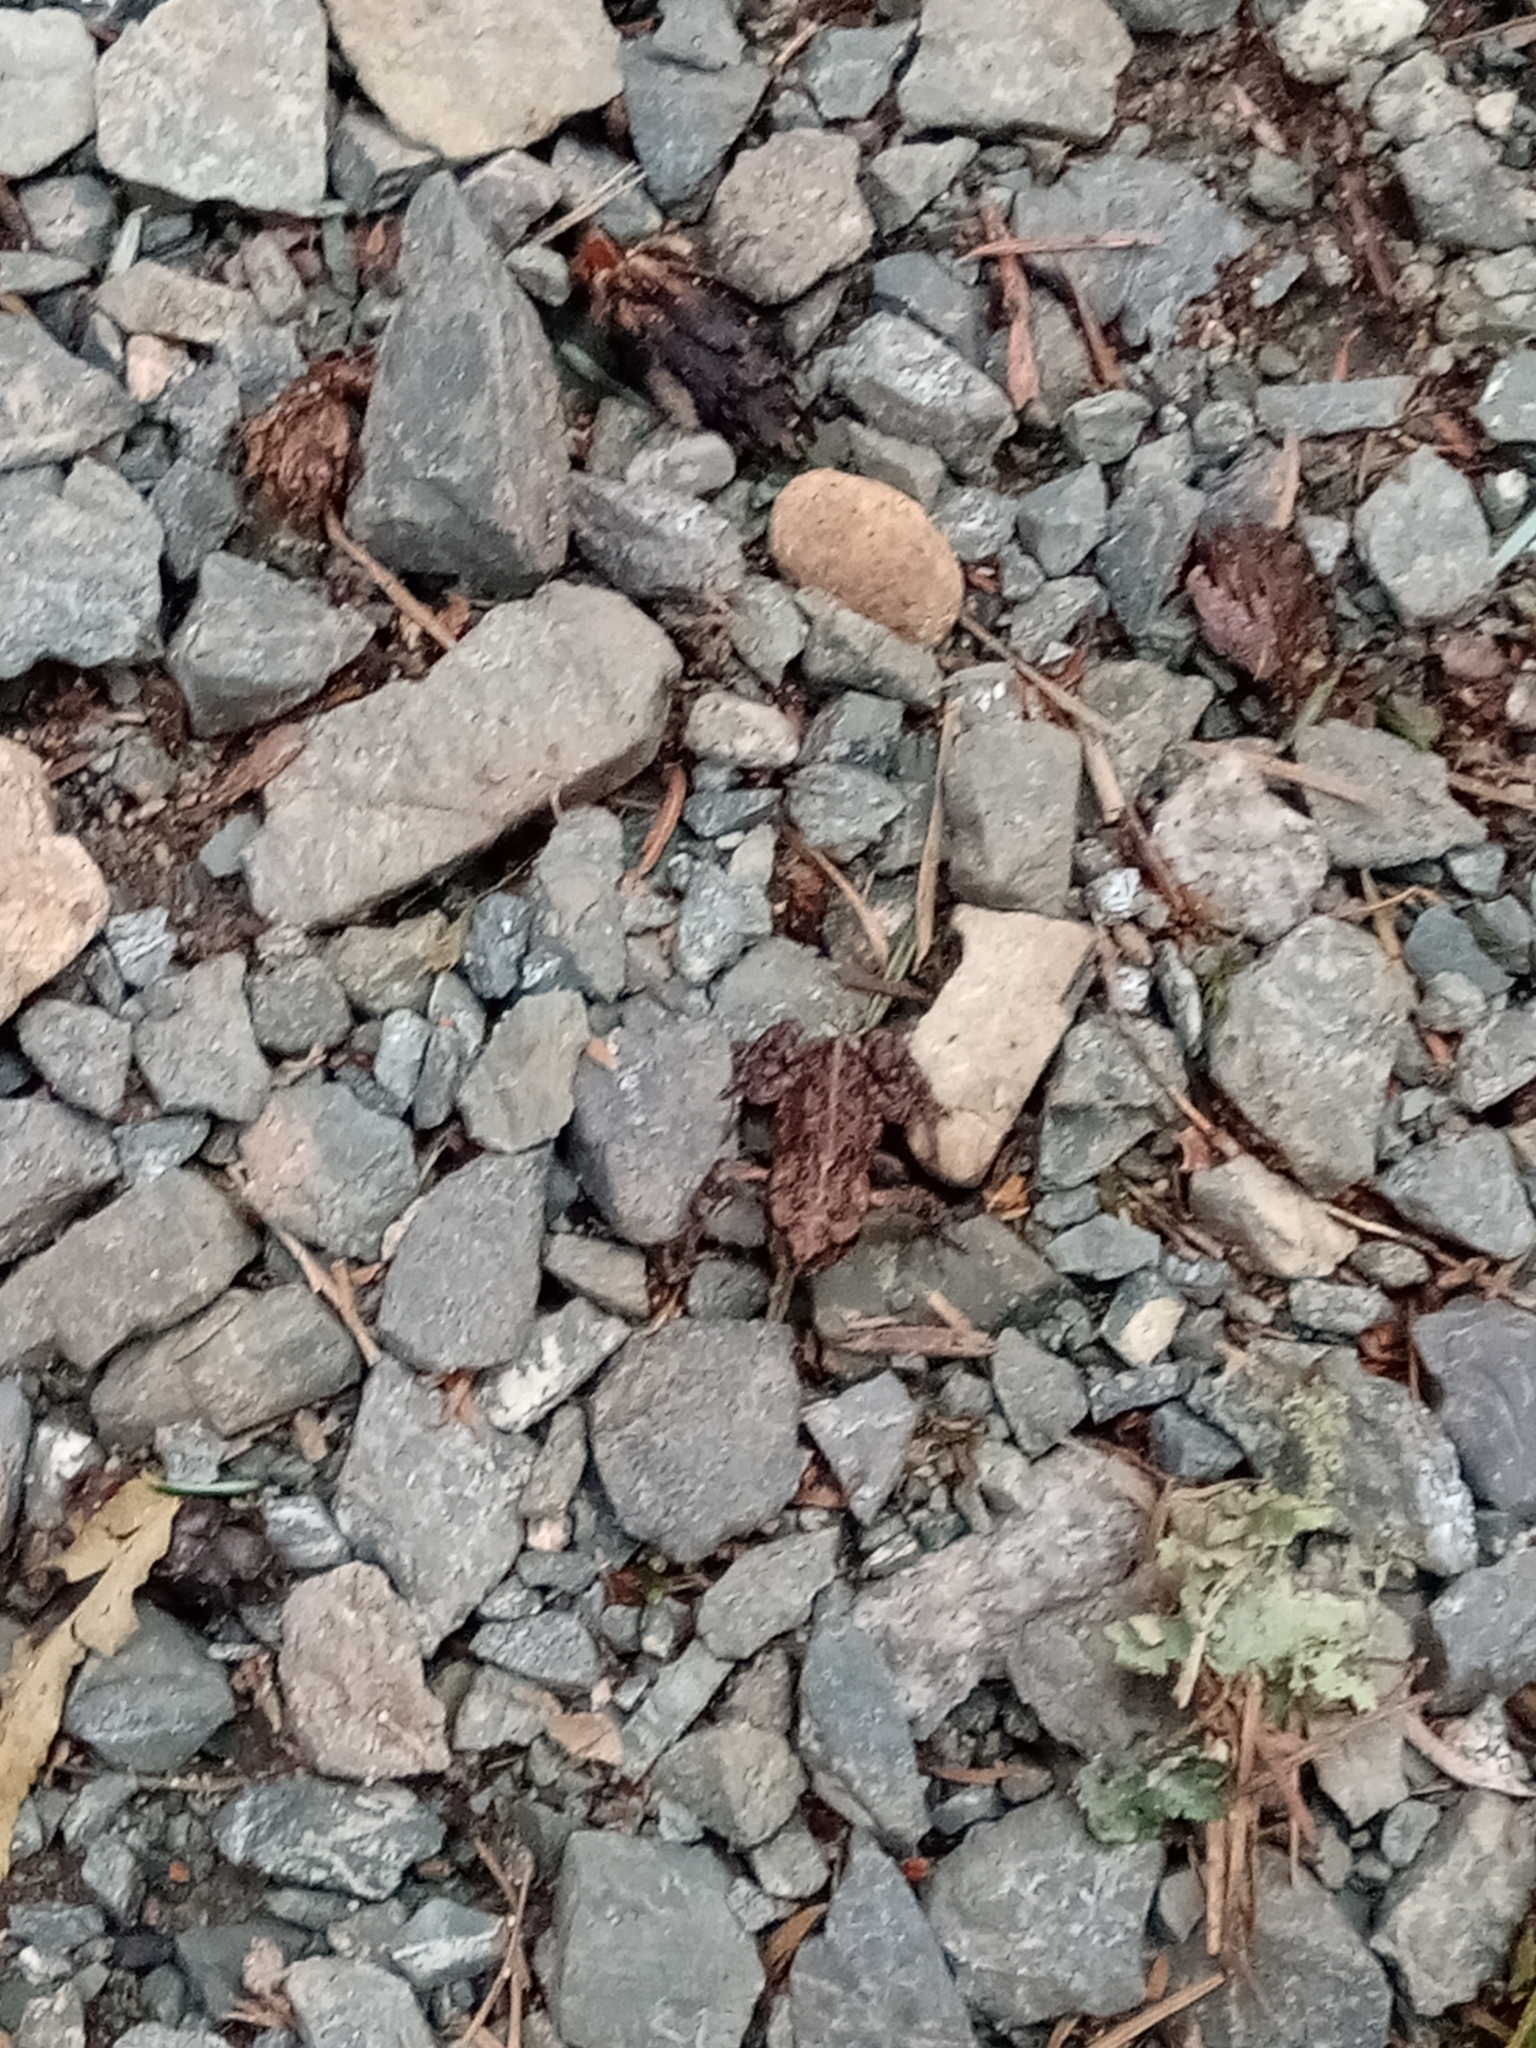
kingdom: Animalia
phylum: Chordata
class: Amphibia
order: Anura
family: Bufonidae
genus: Anaxyrus
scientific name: Anaxyrus boreas
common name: Western toad
